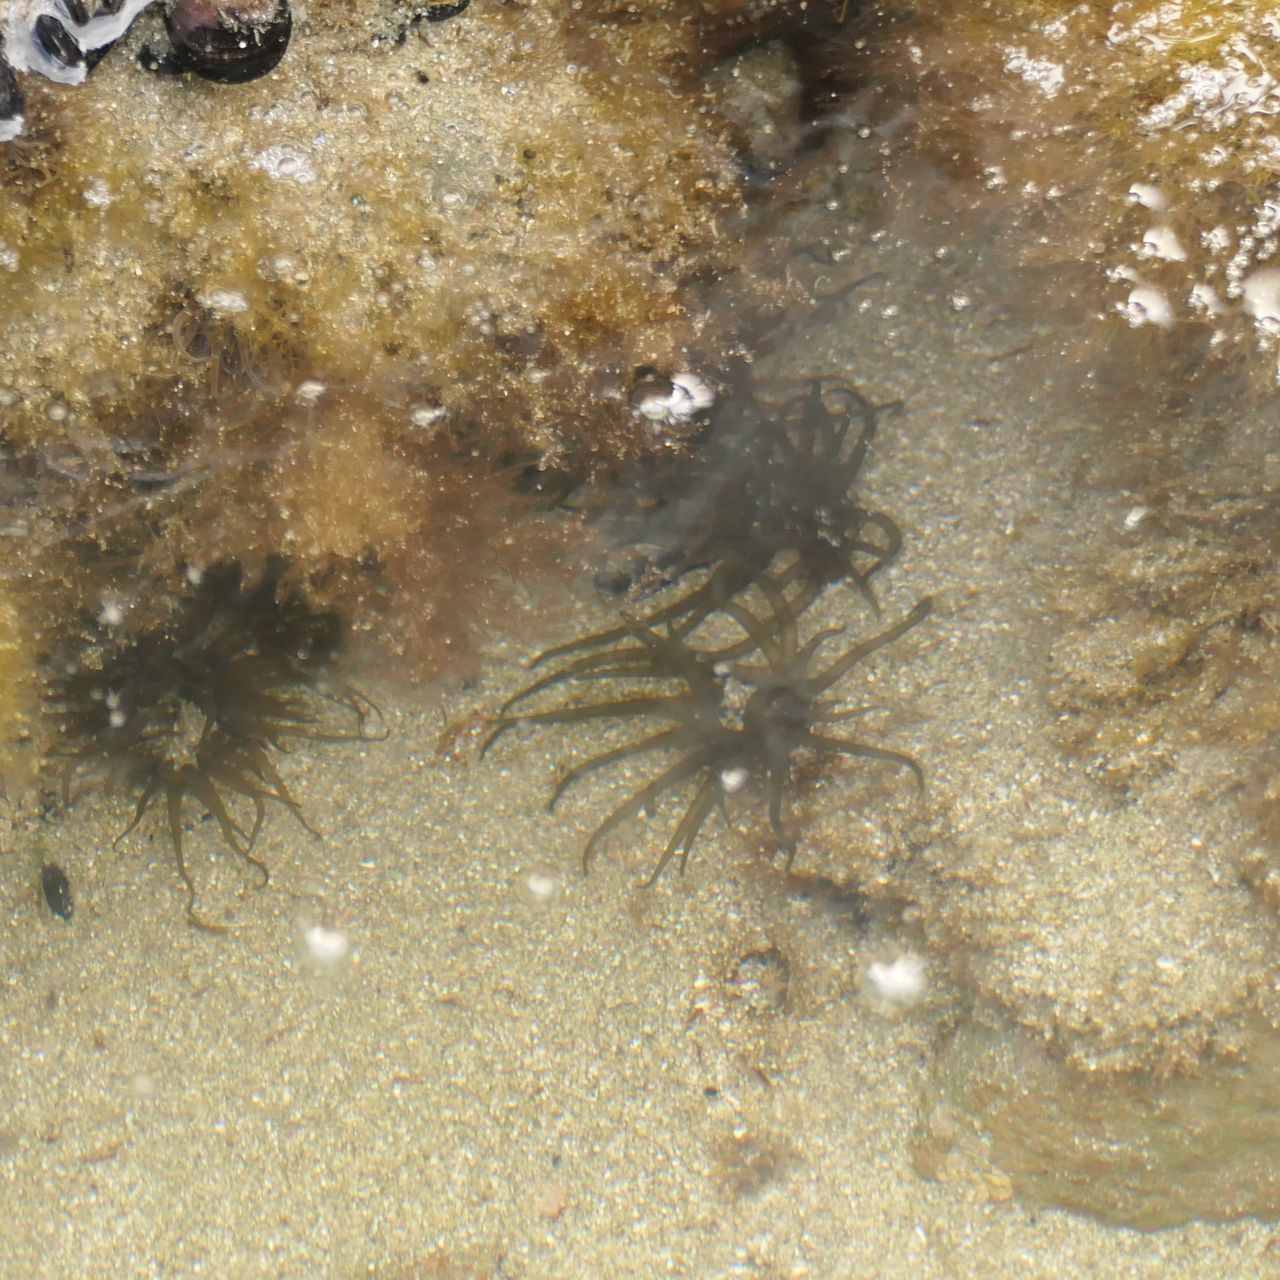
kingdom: Animalia
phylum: Cnidaria
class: Anthozoa
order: Actiniaria
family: Actiniidae
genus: Aulactinia
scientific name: Aulactinia veratra
